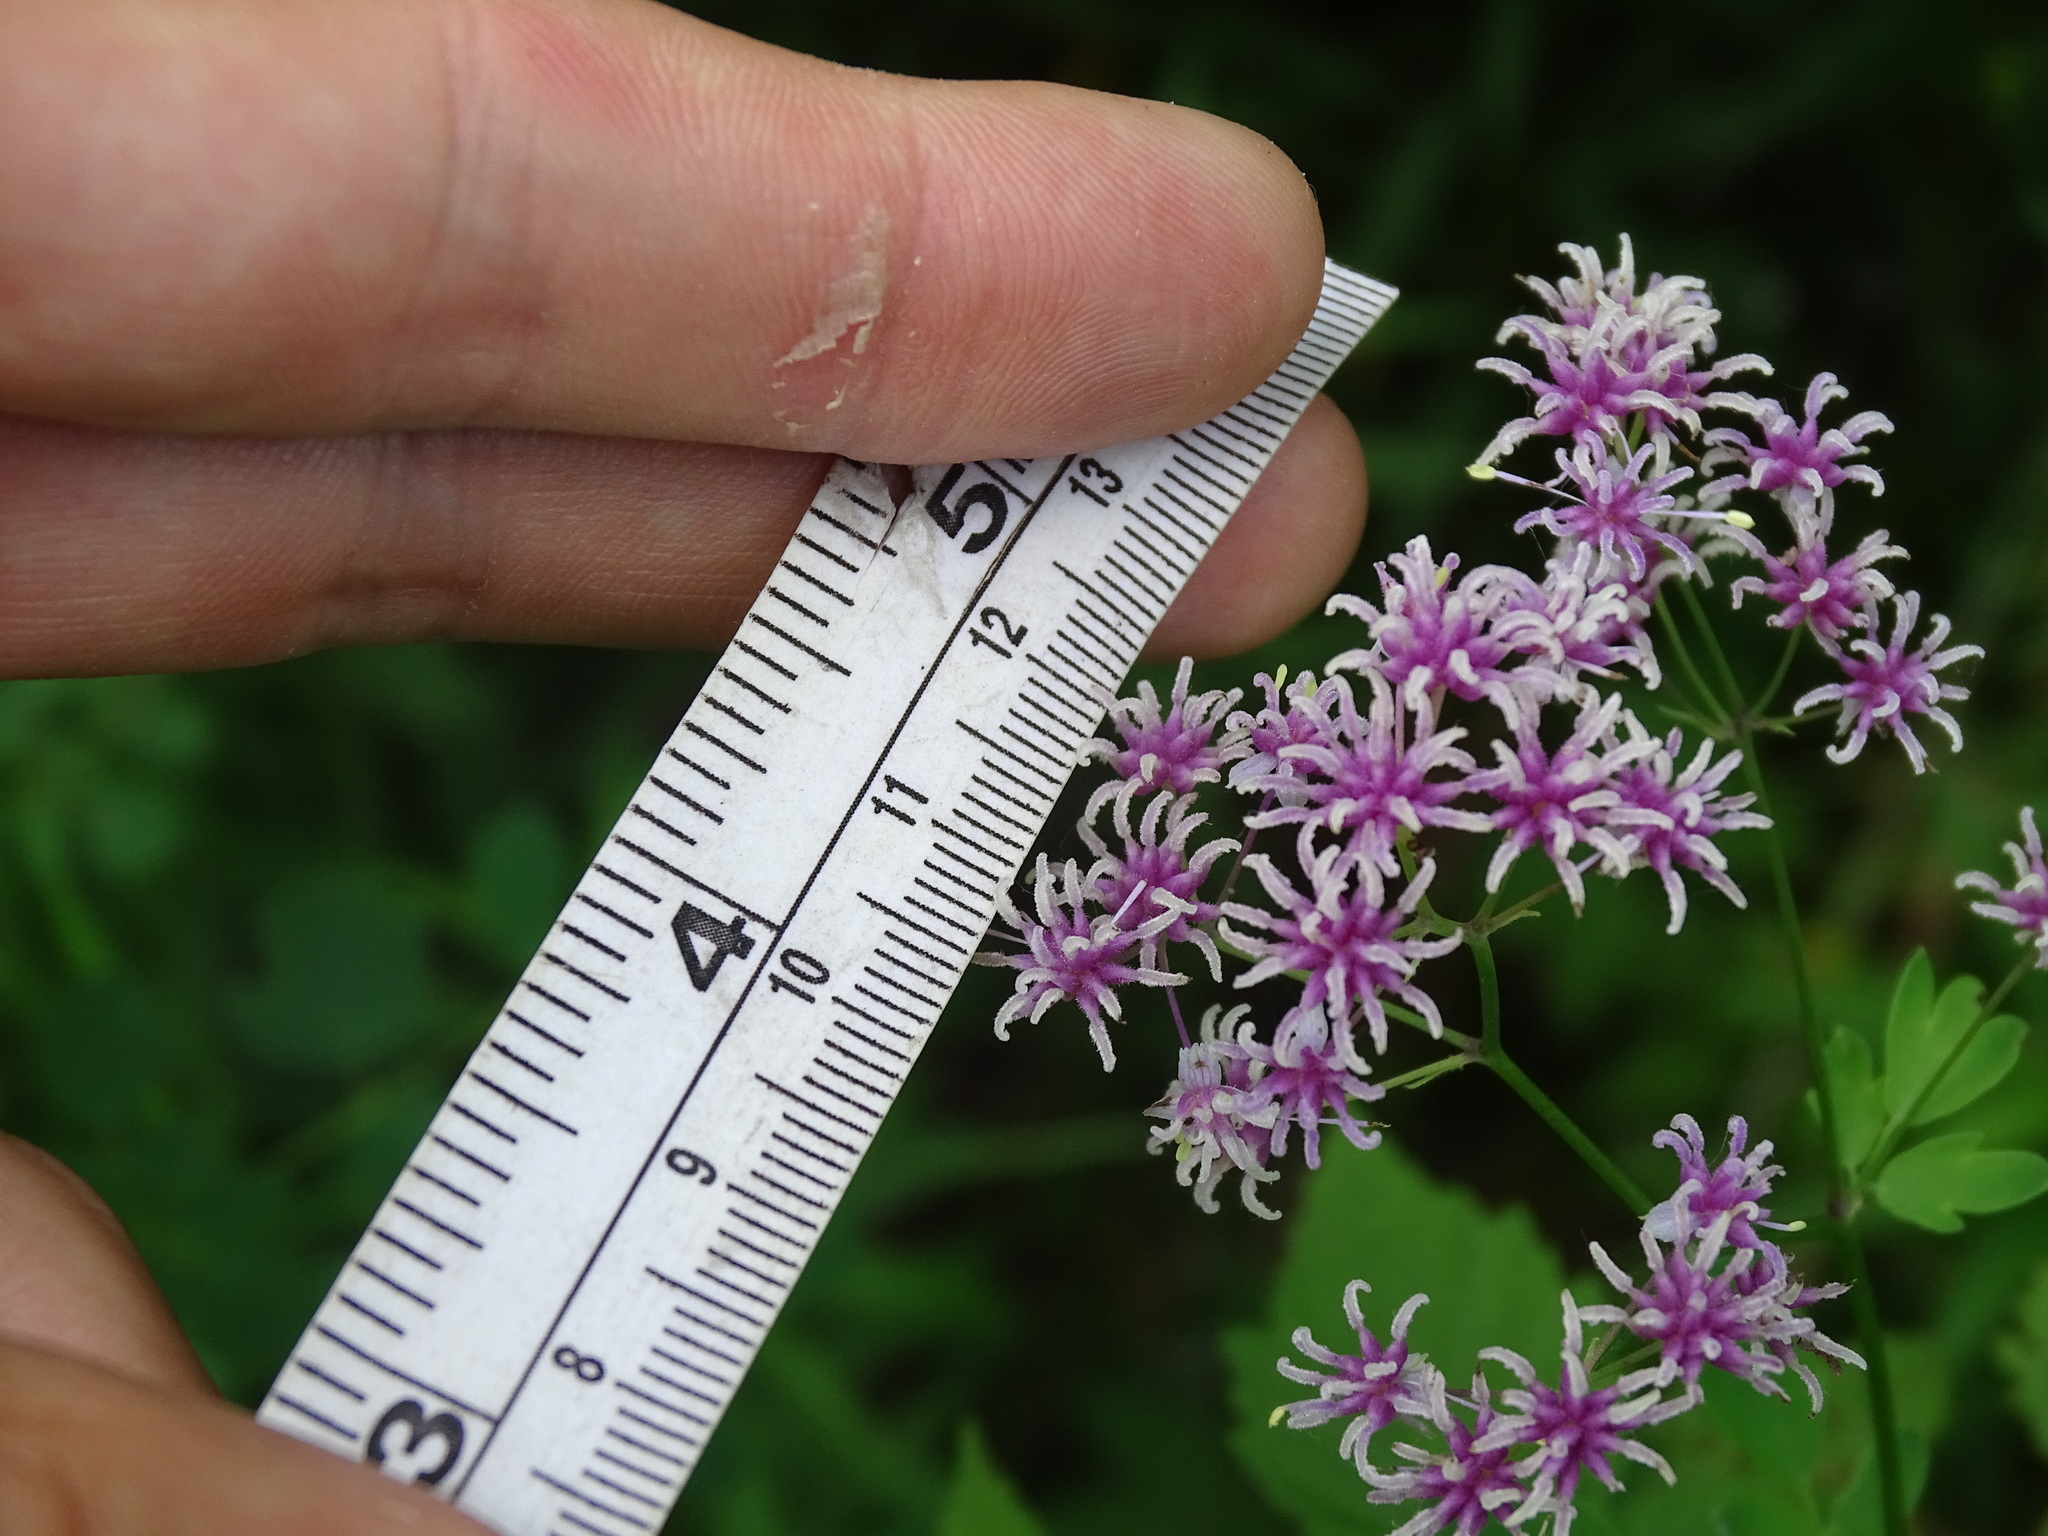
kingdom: Plantae
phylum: Tracheophyta
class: Magnoliopsida
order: Ranunculales
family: Ranunculaceae
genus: Thalictrum
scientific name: Thalictrum pubescens
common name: King-of-the-meadow
